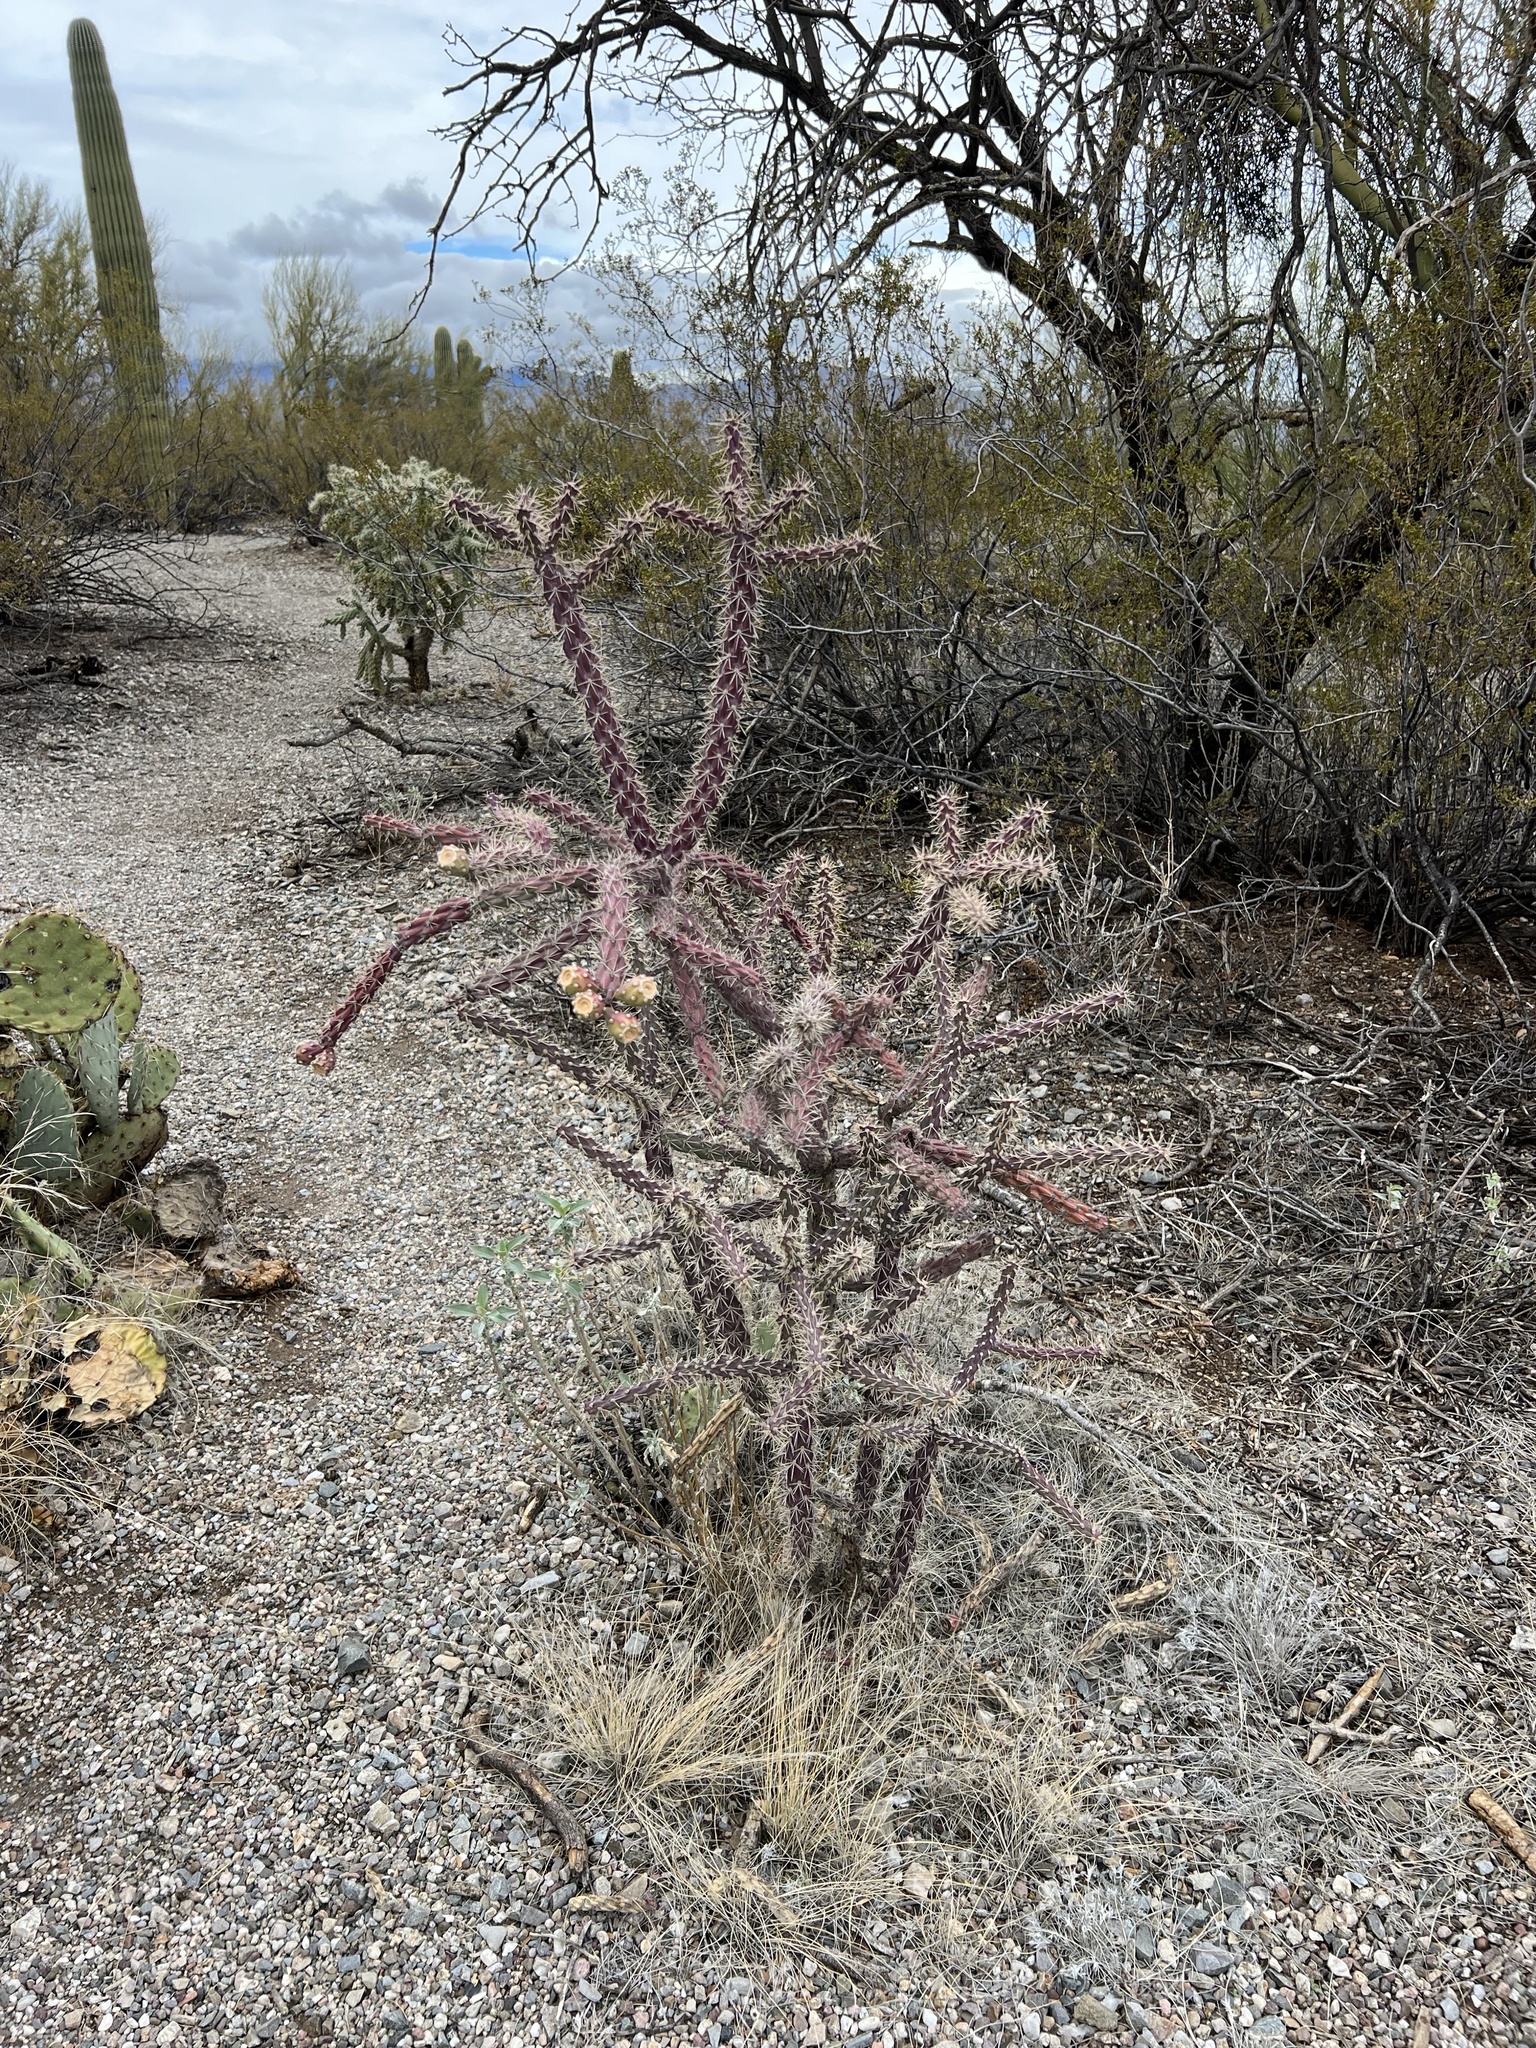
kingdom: Plantae
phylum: Tracheophyta
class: Magnoliopsida
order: Caryophyllales
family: Cactaceae
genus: Cylindropuntia
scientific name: Cylindropuntia thurberi
